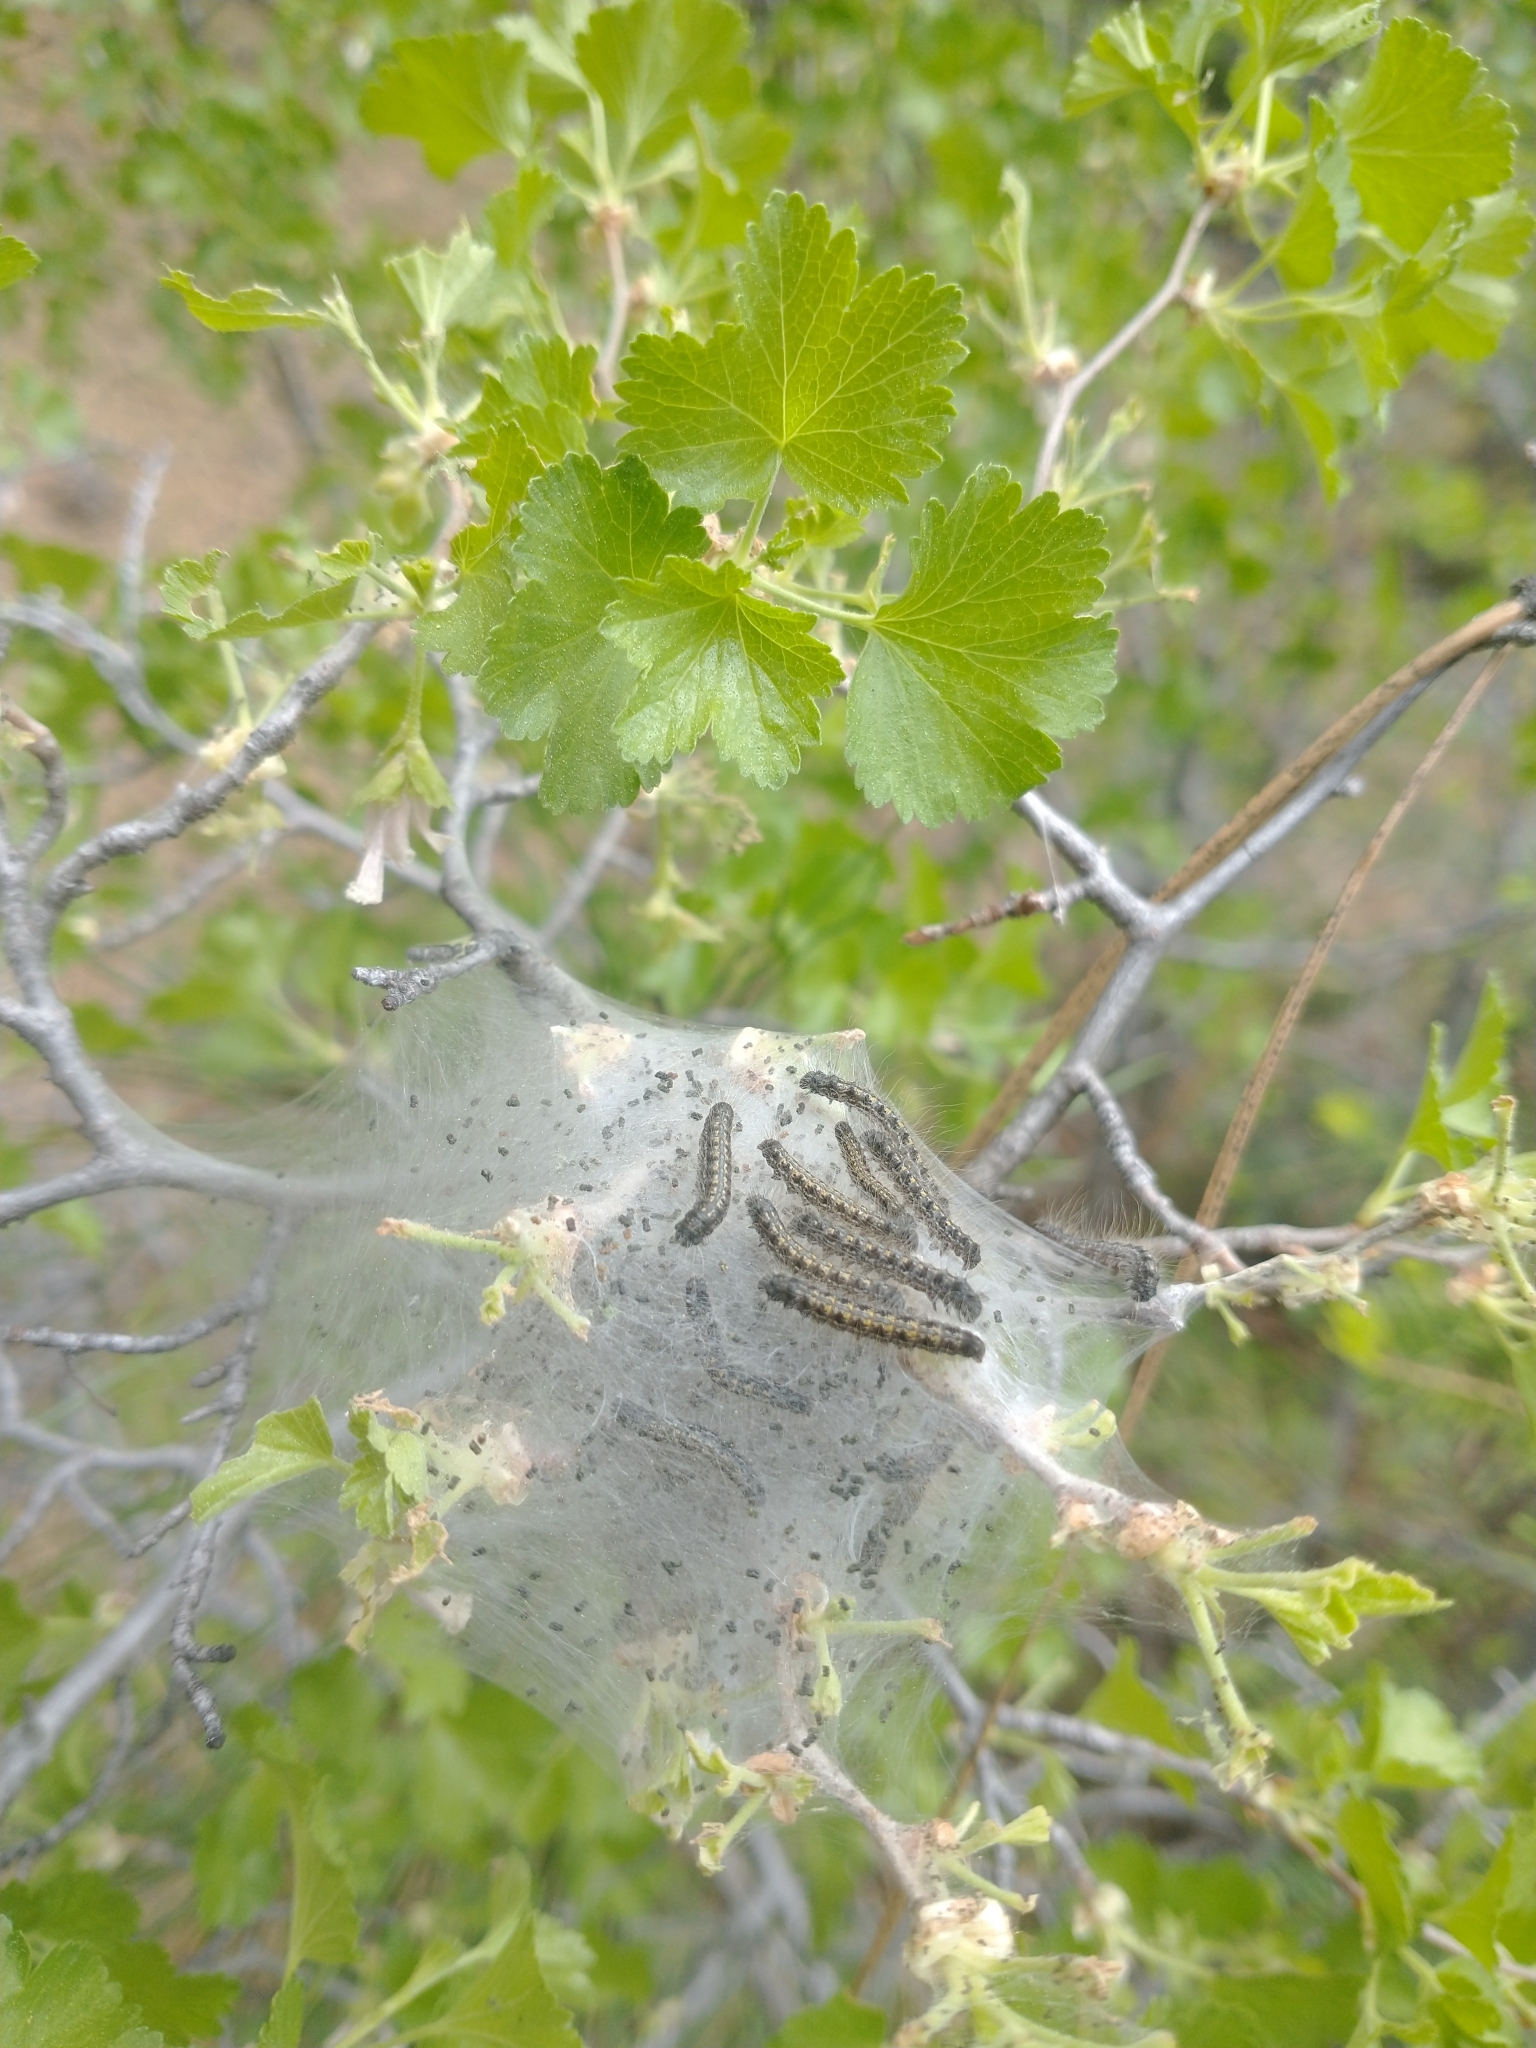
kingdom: Animalia
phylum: Arthropoda
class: Insecta
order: Lepidoptera
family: Lasiocampidae
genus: Malacosoma
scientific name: Malacosoma californica
